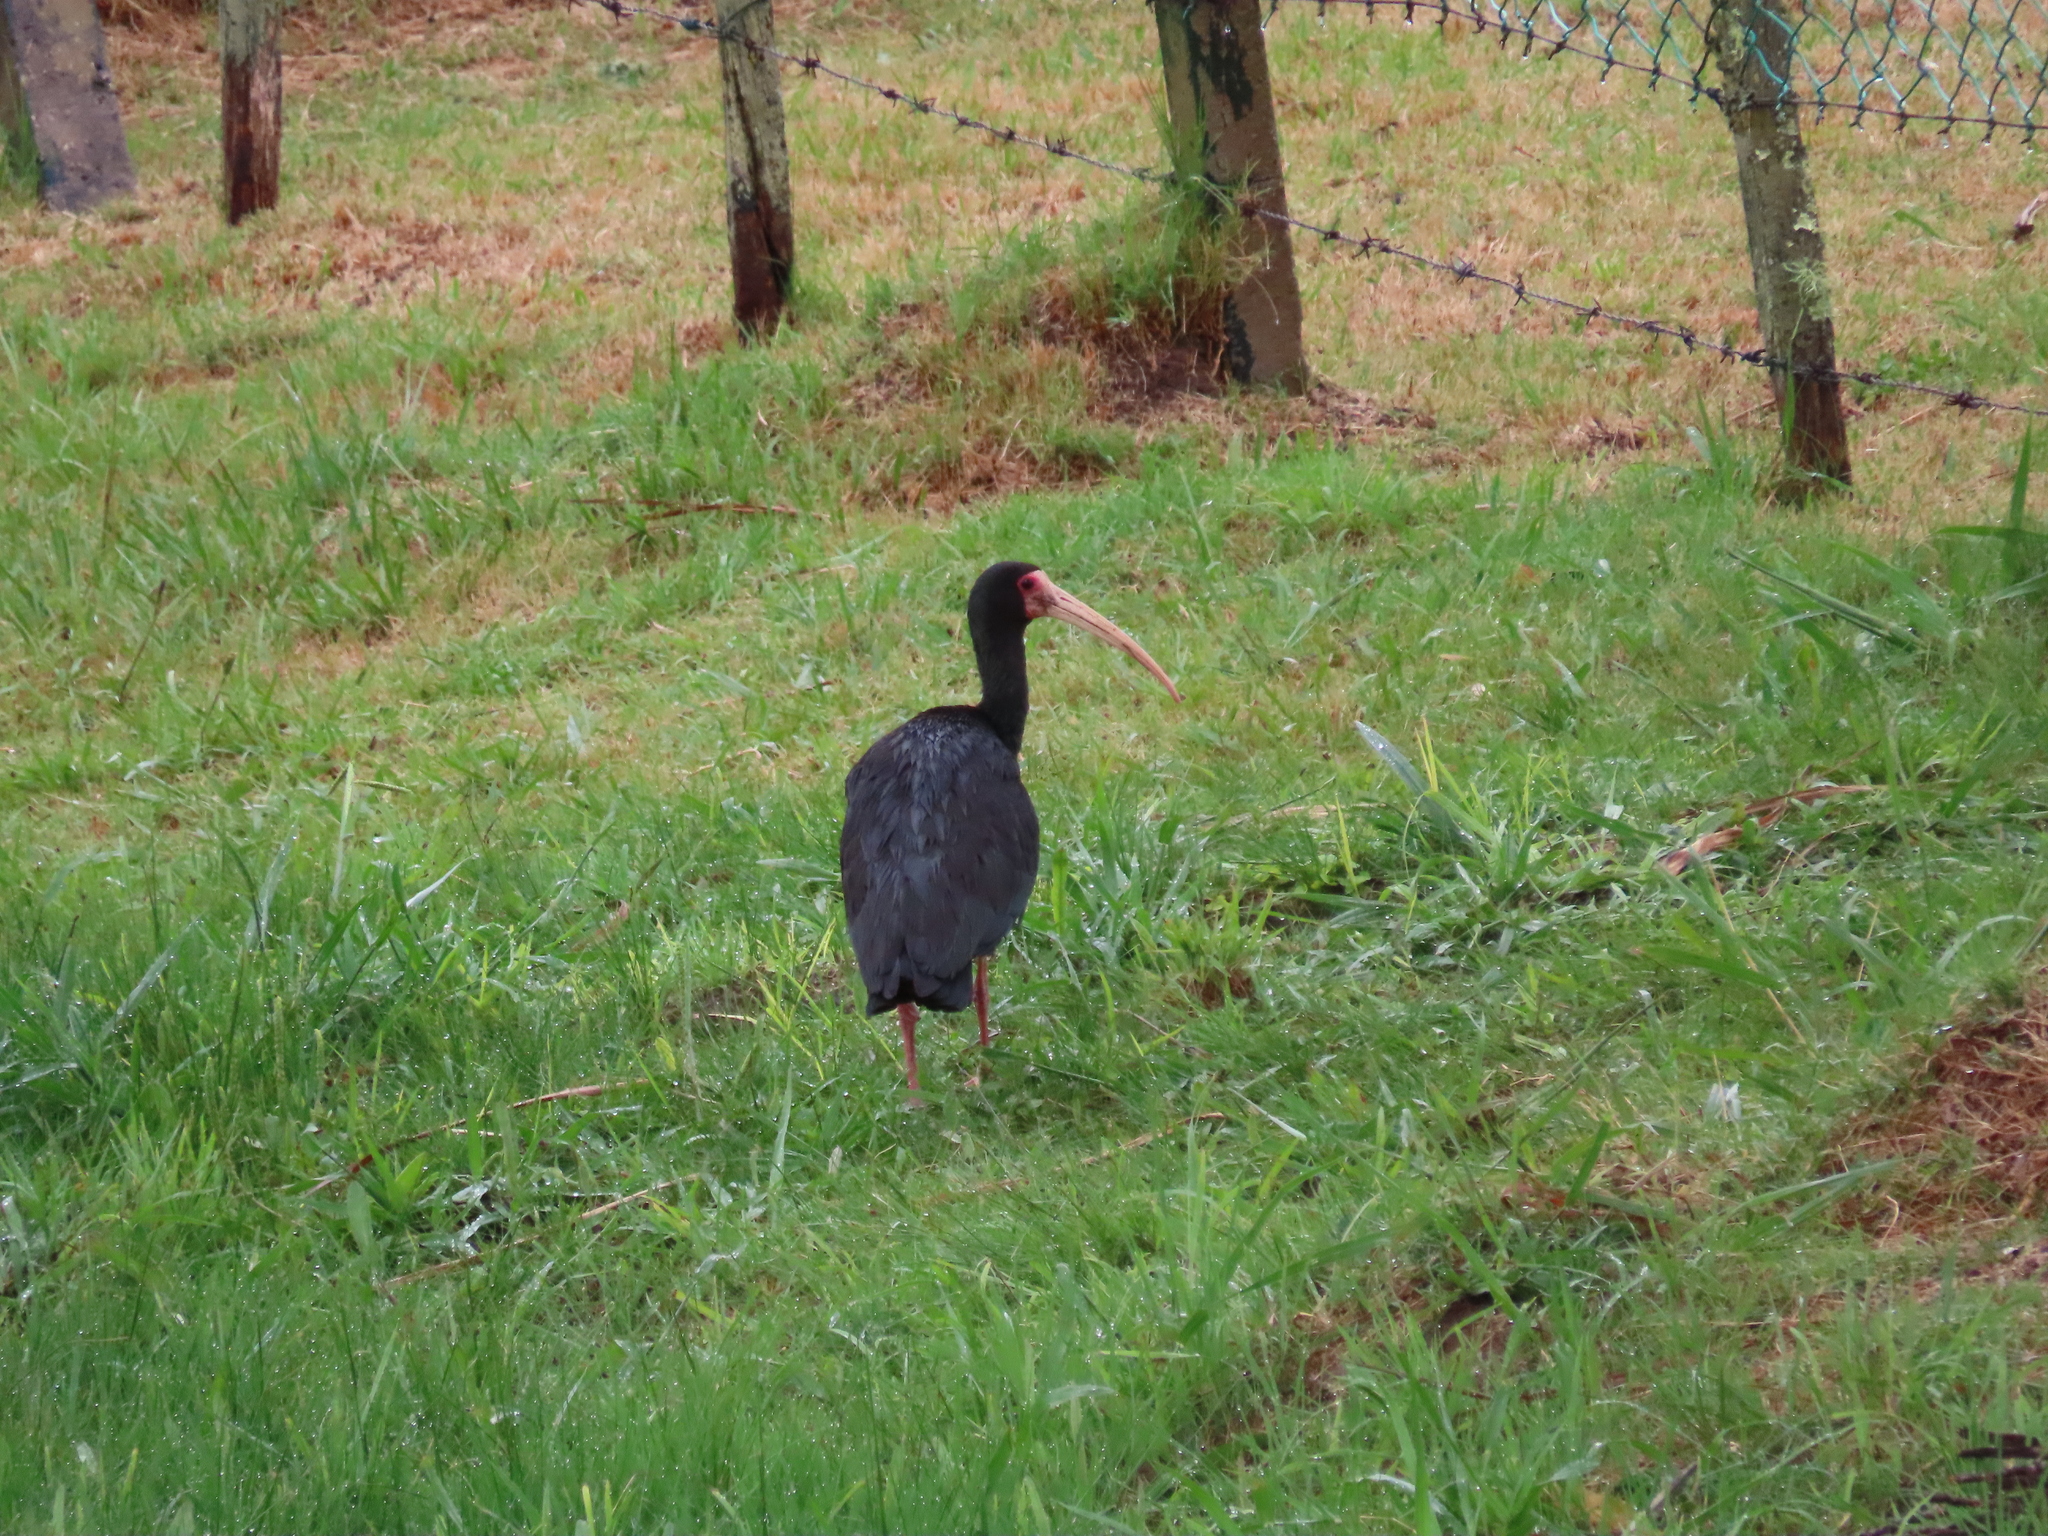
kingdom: Animalia
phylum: Chordata
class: Aves
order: Pelecaniformes
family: Threskiornithidae
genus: Phimosus
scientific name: Phimosus infuscatus
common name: Bare-faced ibis
